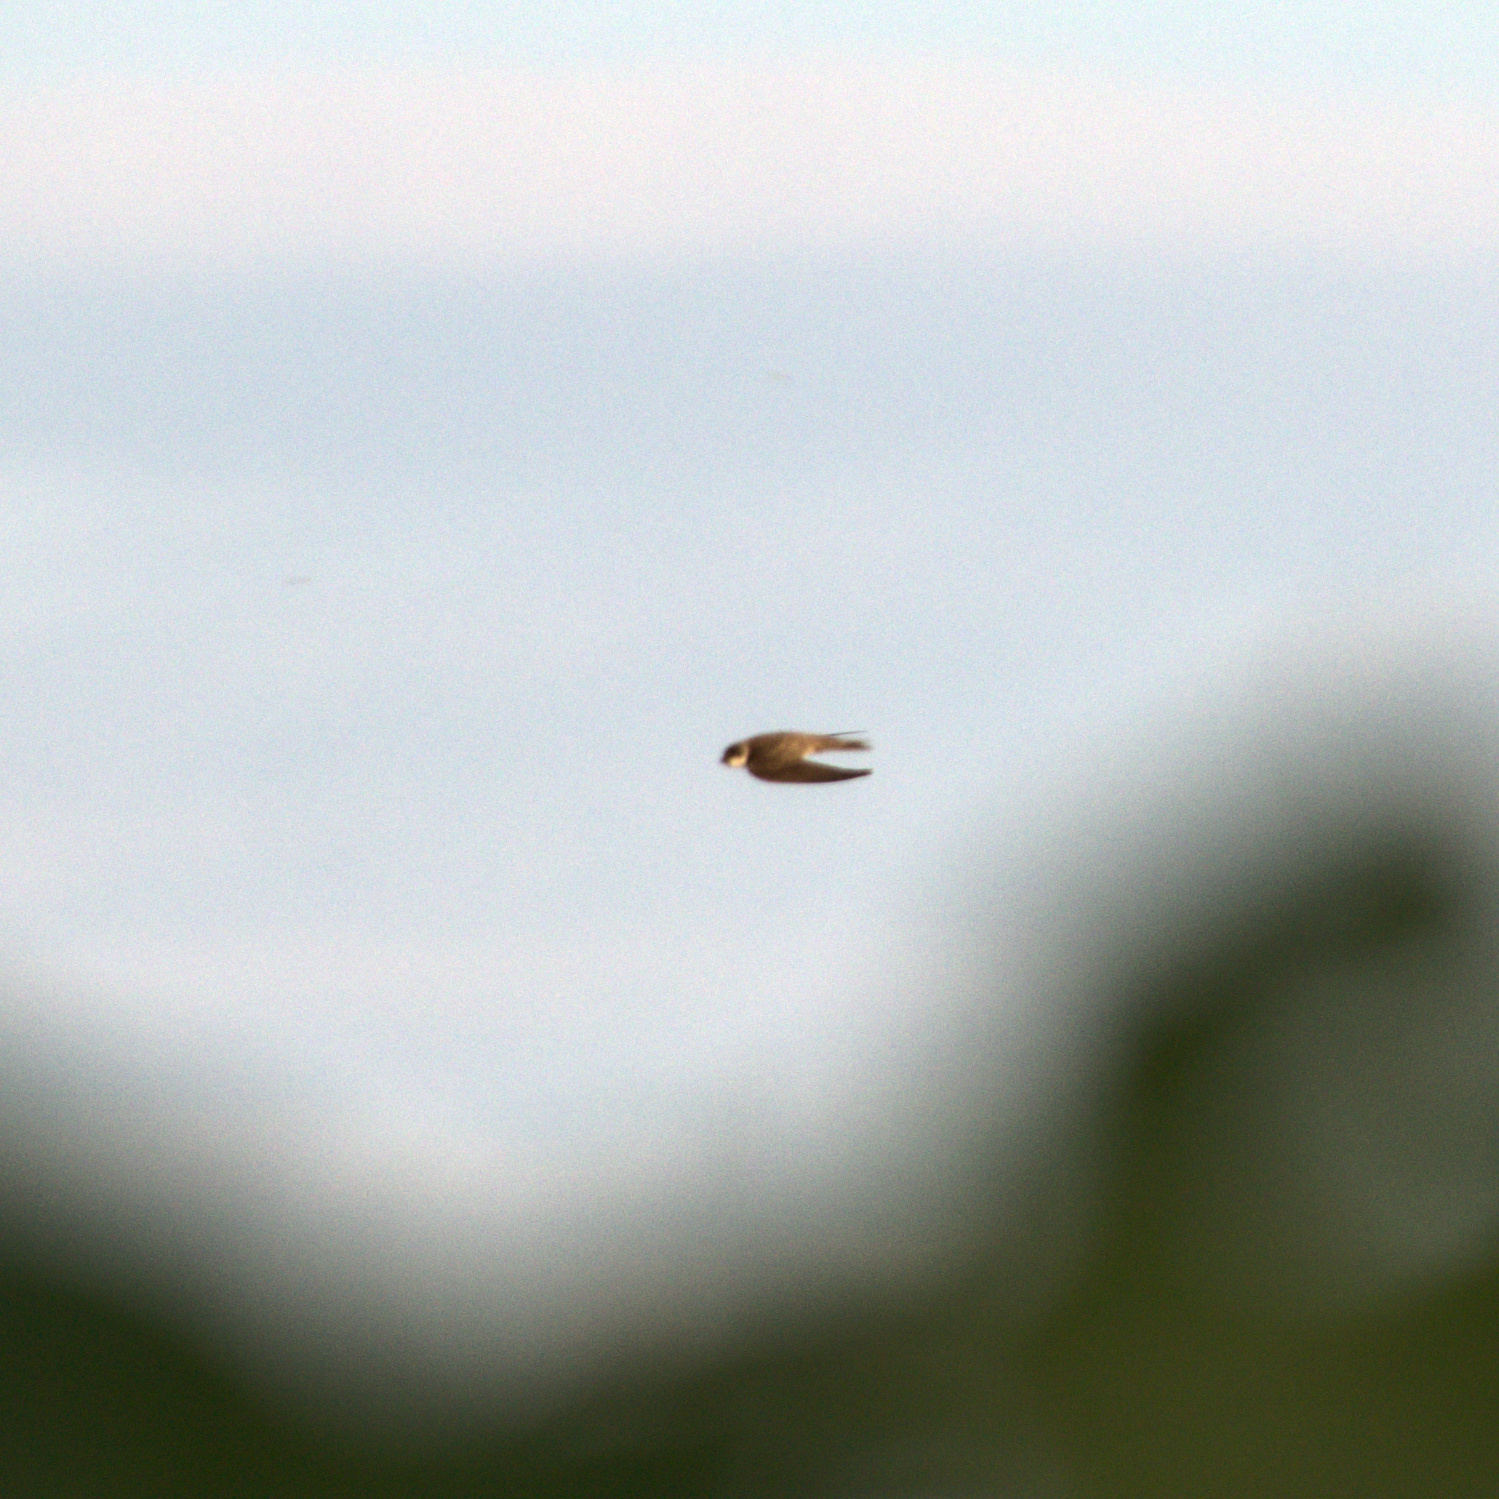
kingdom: Animalia
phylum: Chordata
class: Aves
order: Passeriformes
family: Hirundinidae
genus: Riparia
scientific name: Riparia riparia
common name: Sand martin
